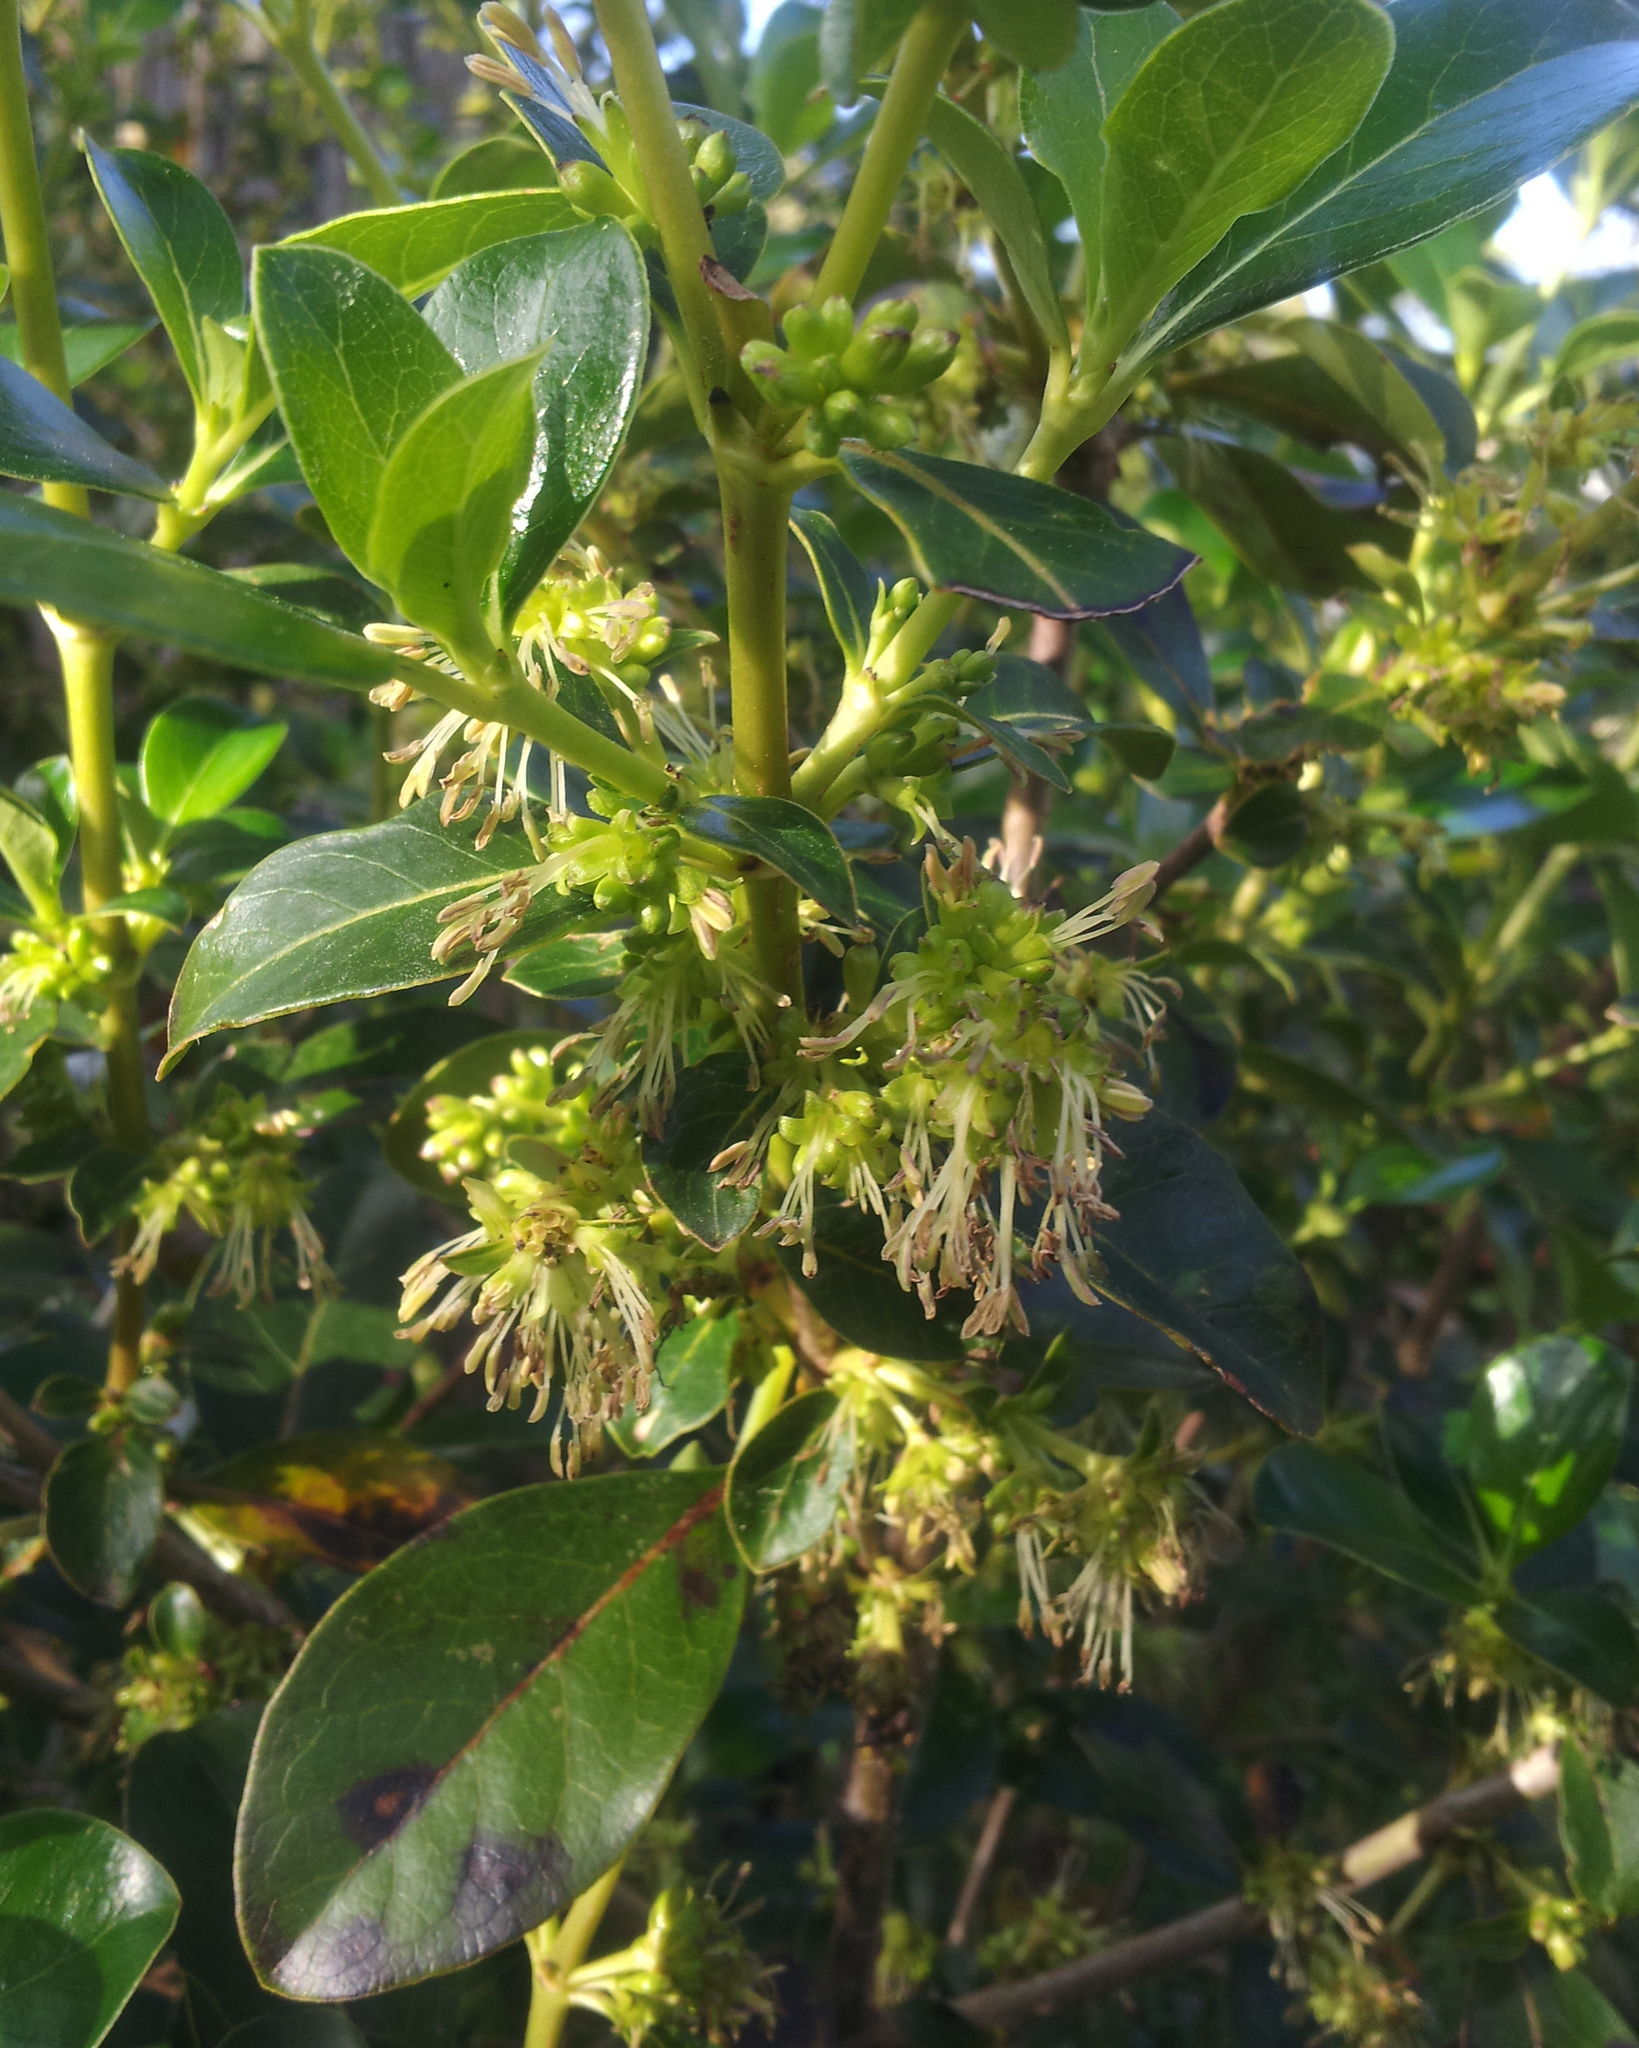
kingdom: Plantae
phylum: Tracheophyta
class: Magnoliopsida
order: Gentianales
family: Rubiaceae
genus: Coprosma
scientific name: Coprosma robusta
